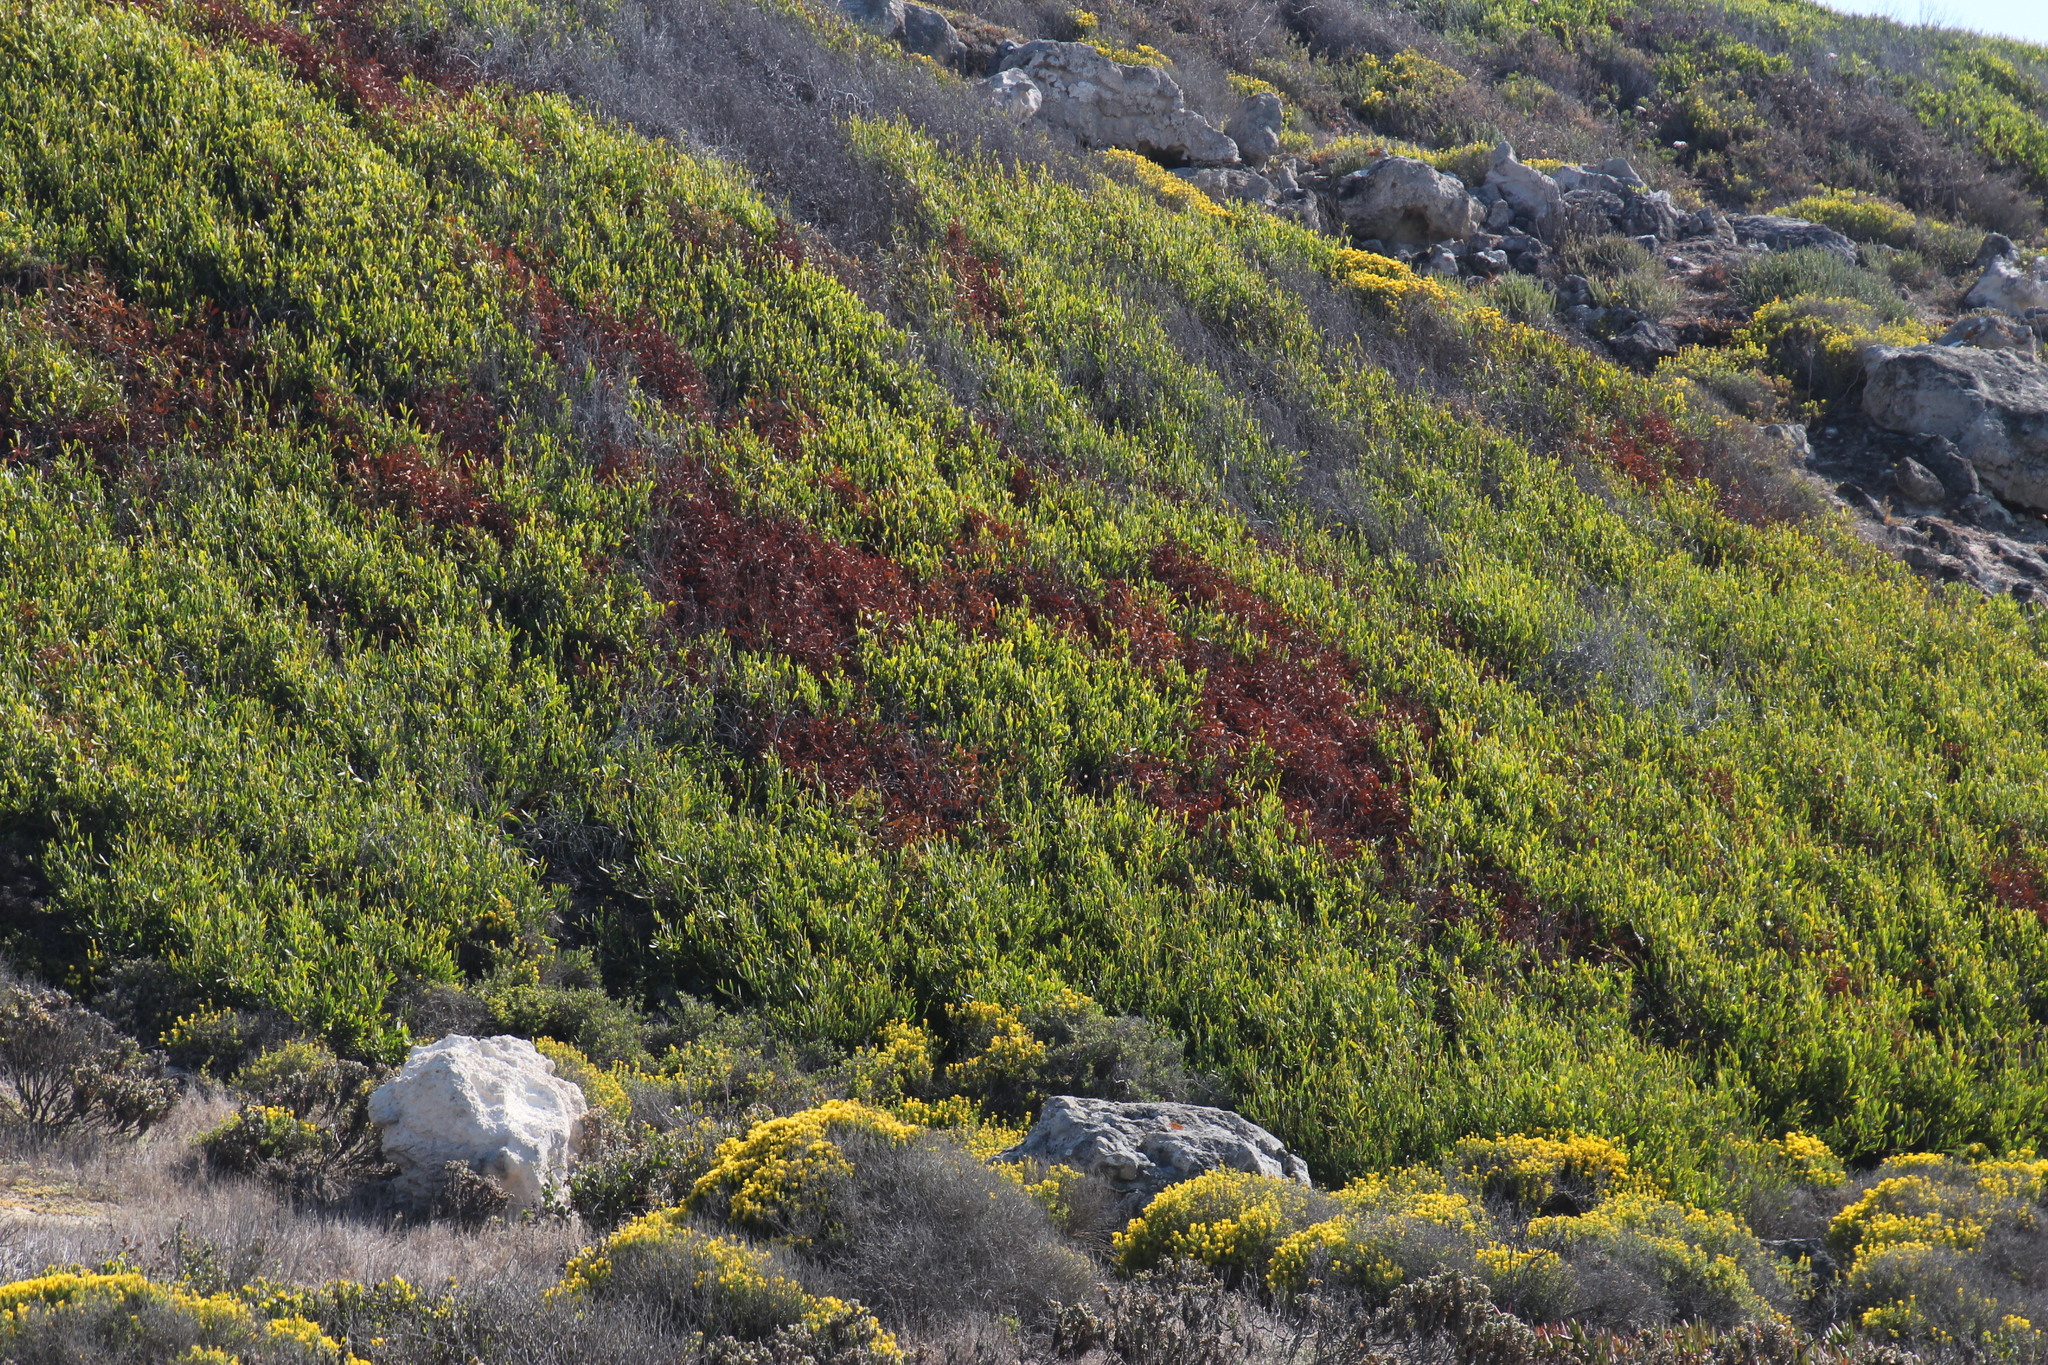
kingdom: Plantae
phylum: Tracheophyta
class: Magnoliopsida
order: Fabales
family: Fabaceae
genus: Acacia
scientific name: Acacia cyclops
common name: Coastal wattle
